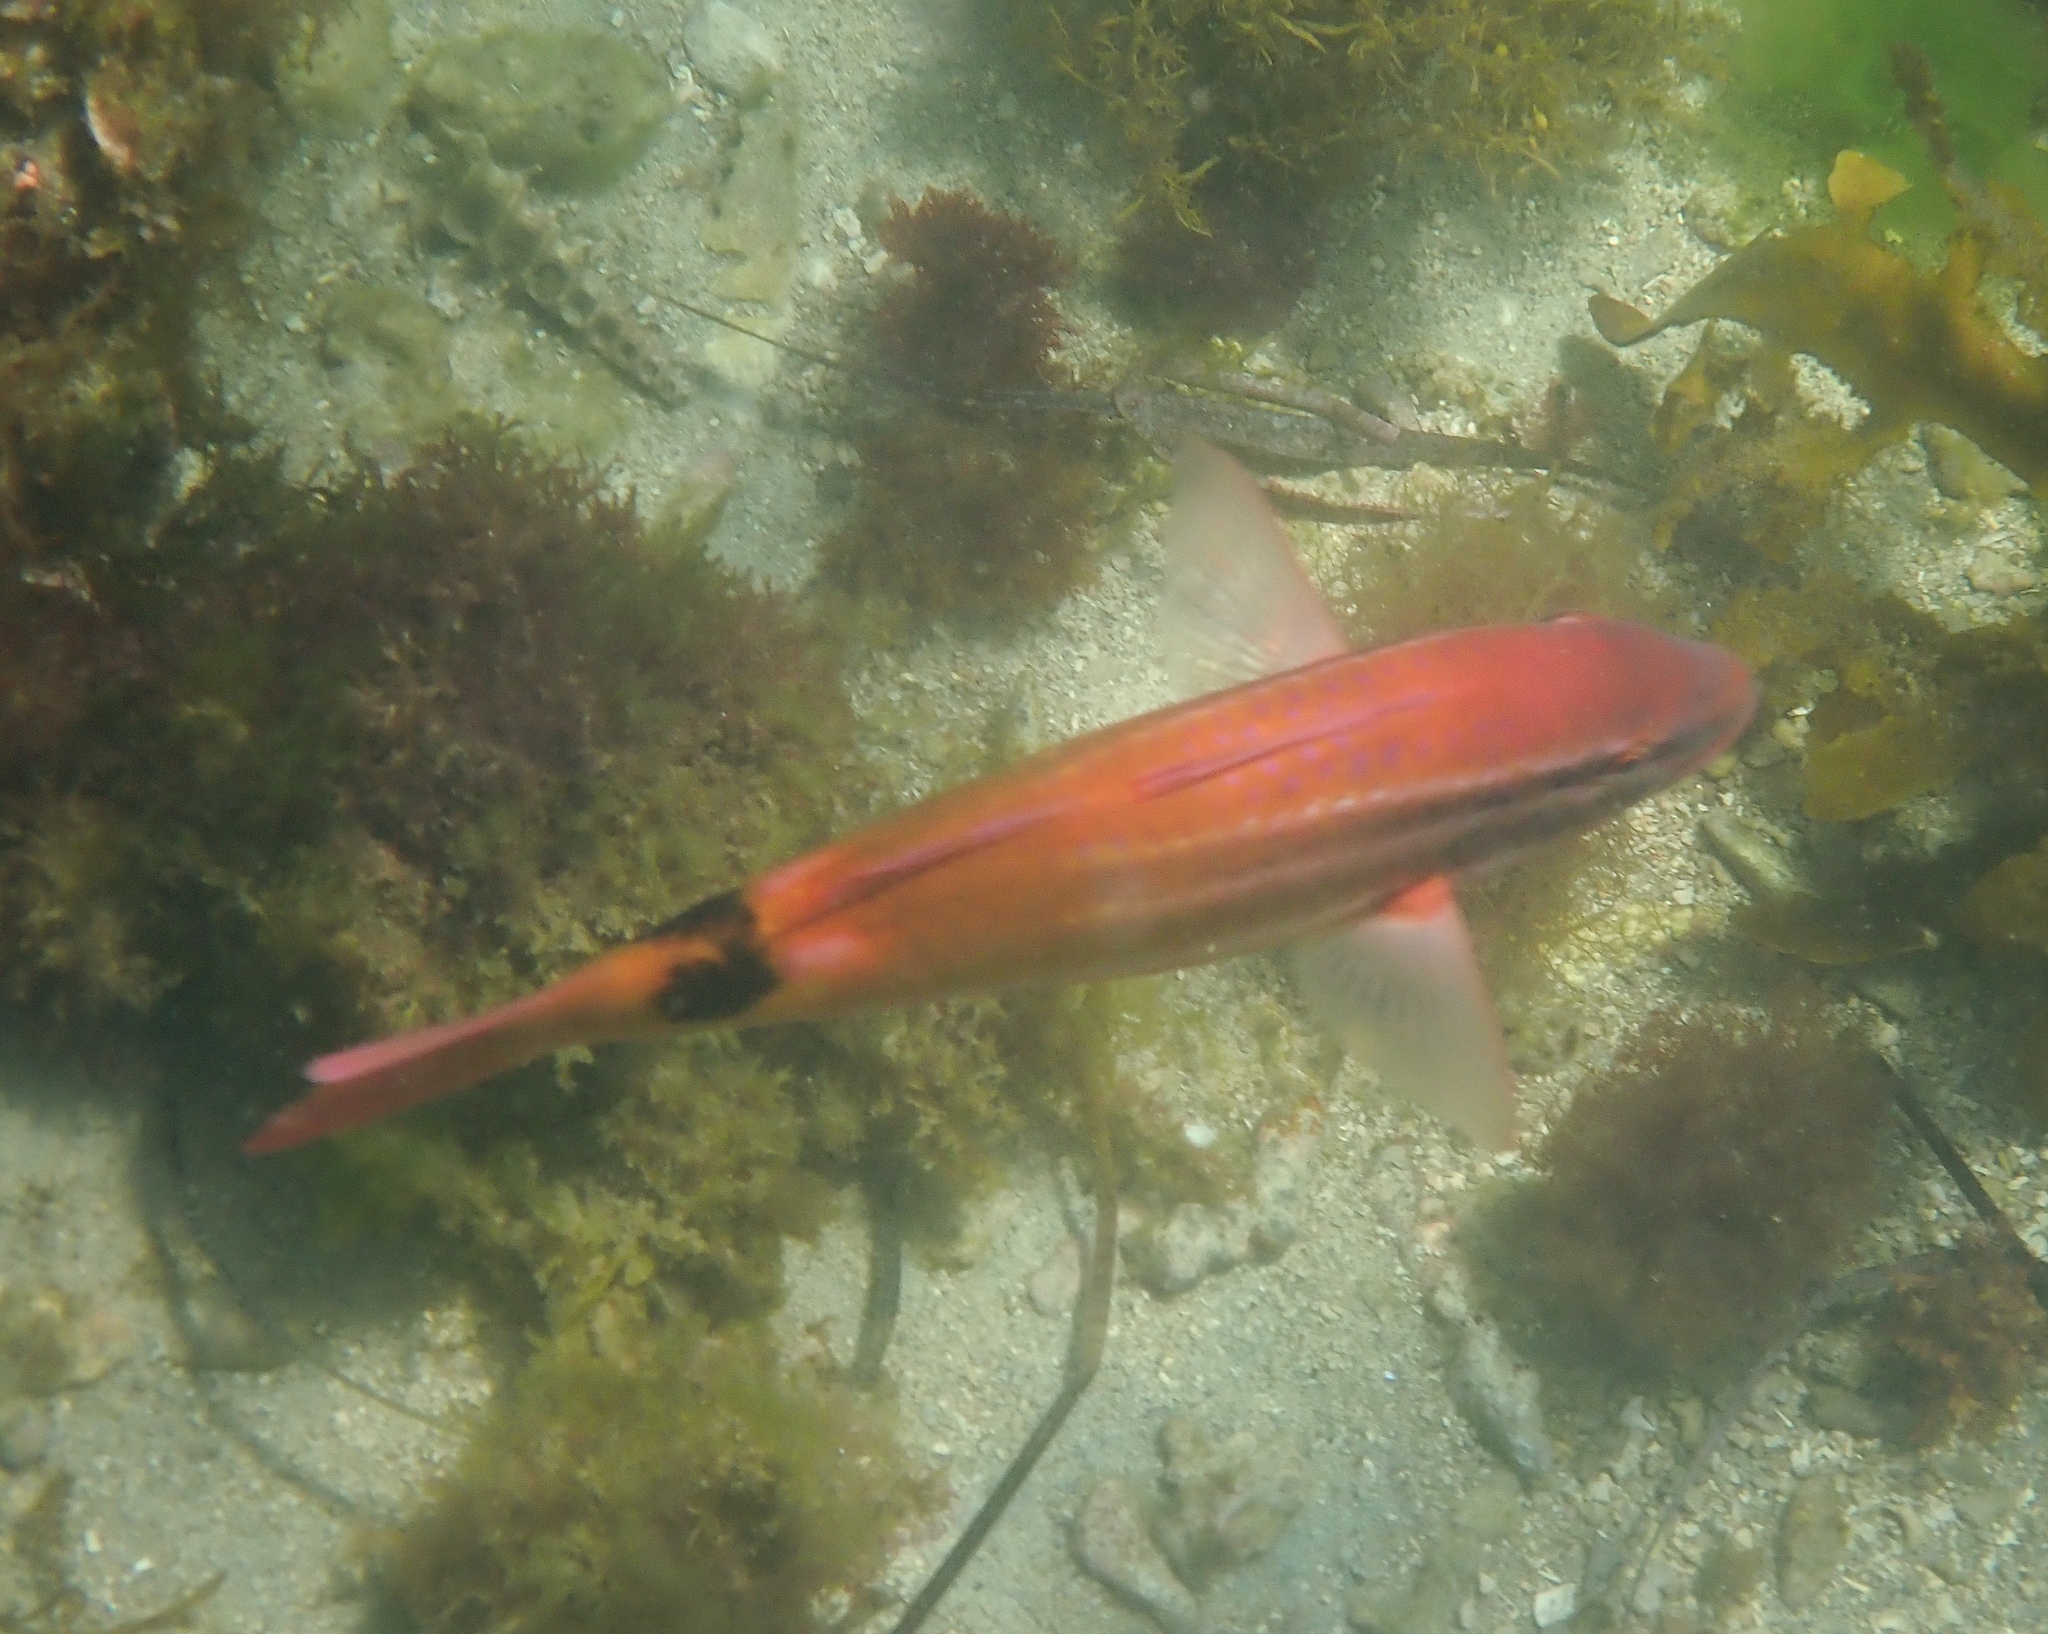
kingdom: Animalia
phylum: Chordata
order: Perciformes
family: Mullidae
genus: Parupeneus
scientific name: Parupeneus spilurus
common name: Blackspot goatfish
